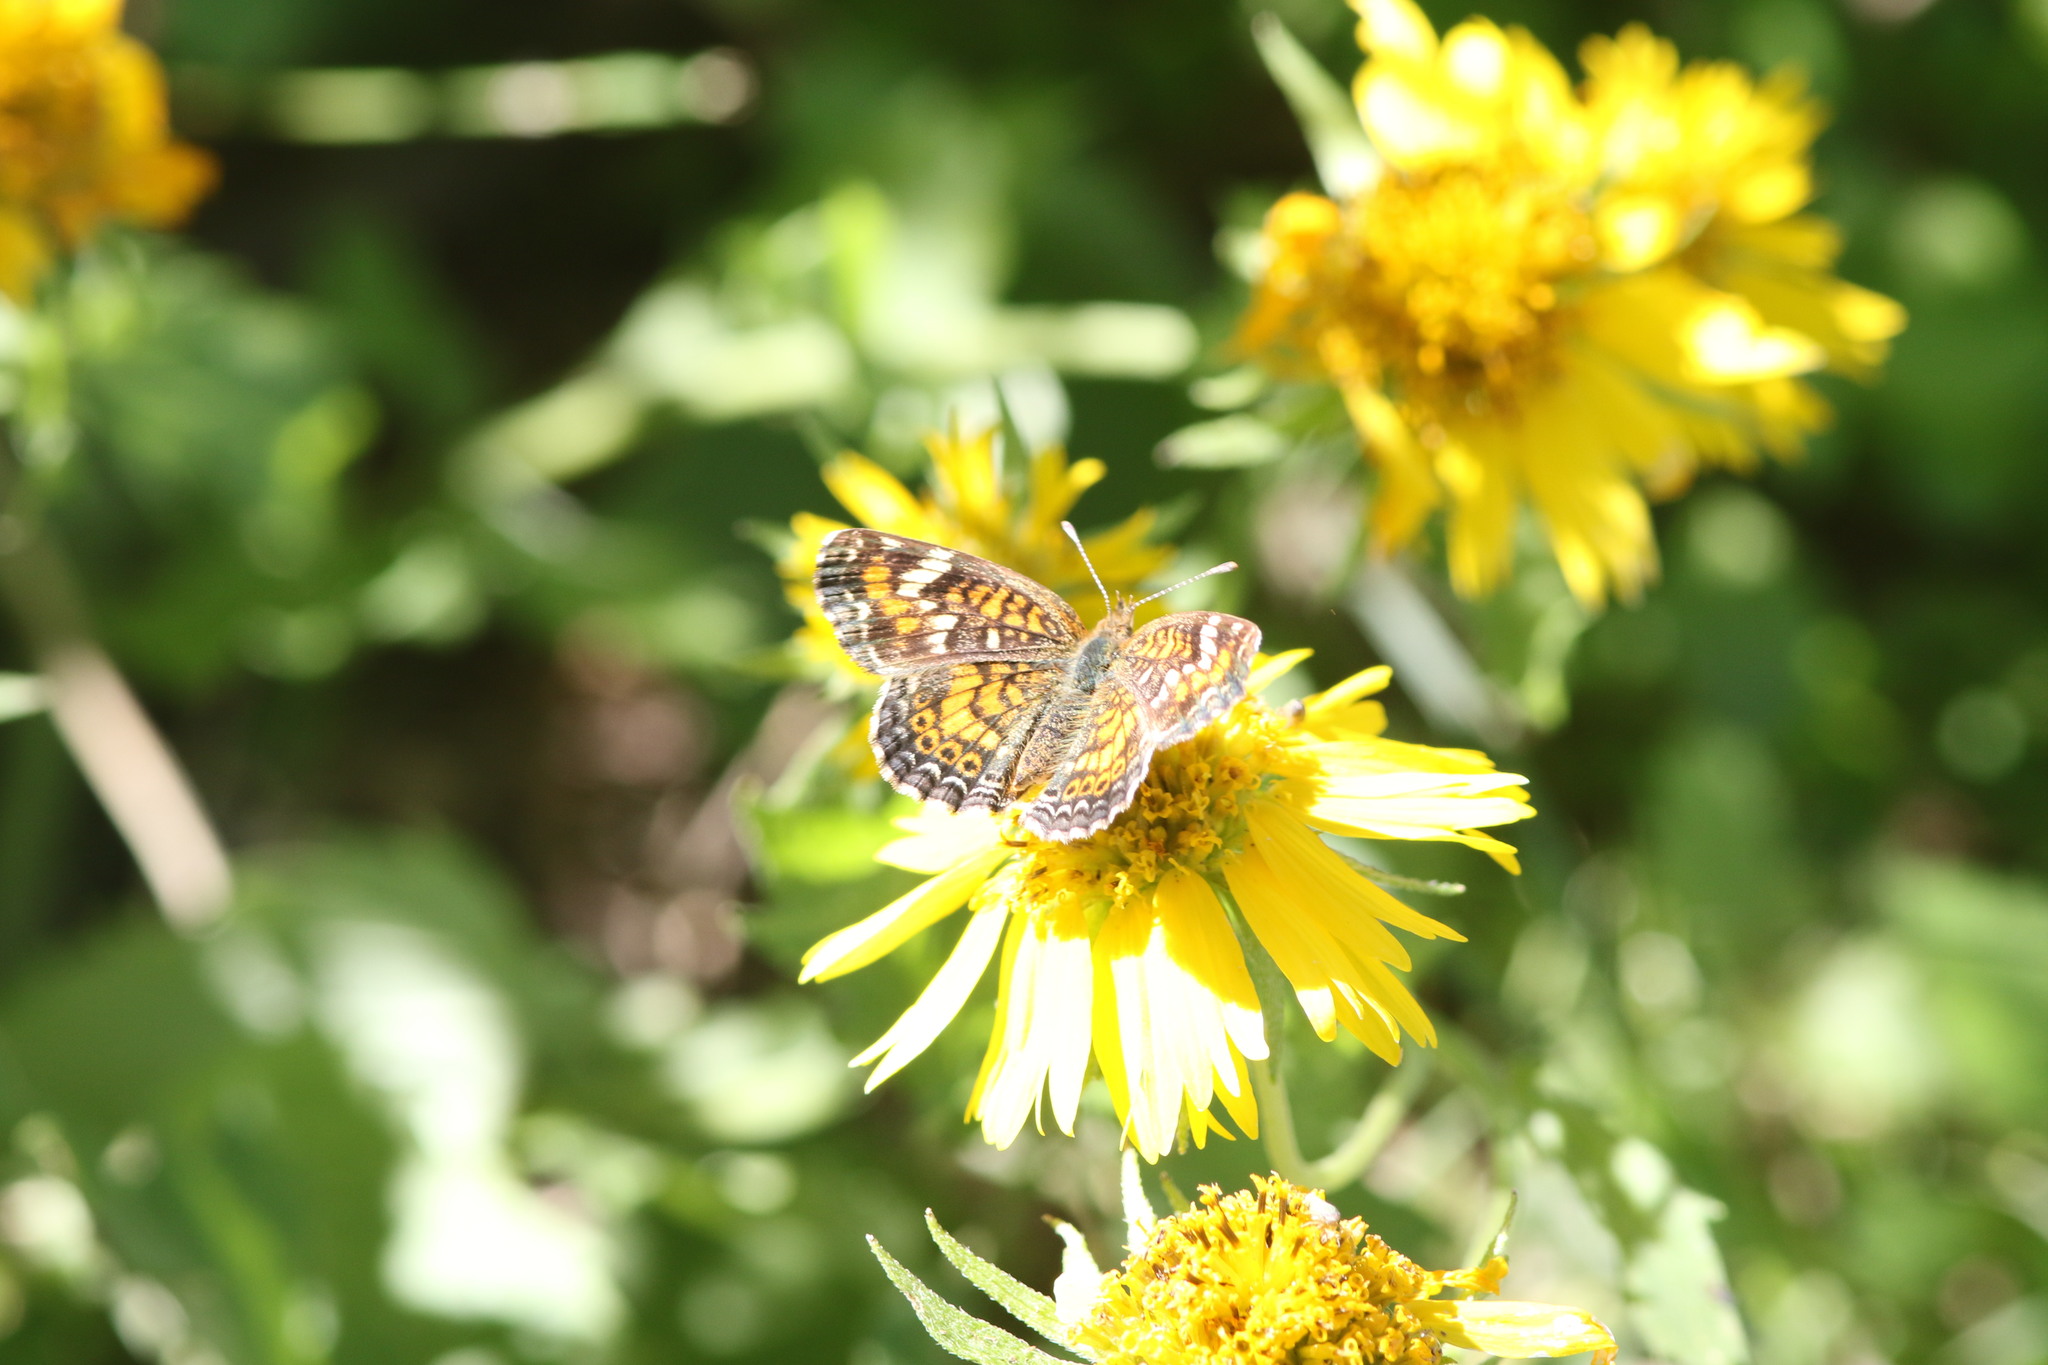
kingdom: Animalia
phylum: Arthropoda
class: Insecta
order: Lepidoptera
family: Nymphalidae
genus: Phyciodes
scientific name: Phyciodes phaon
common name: Phaon crescent
